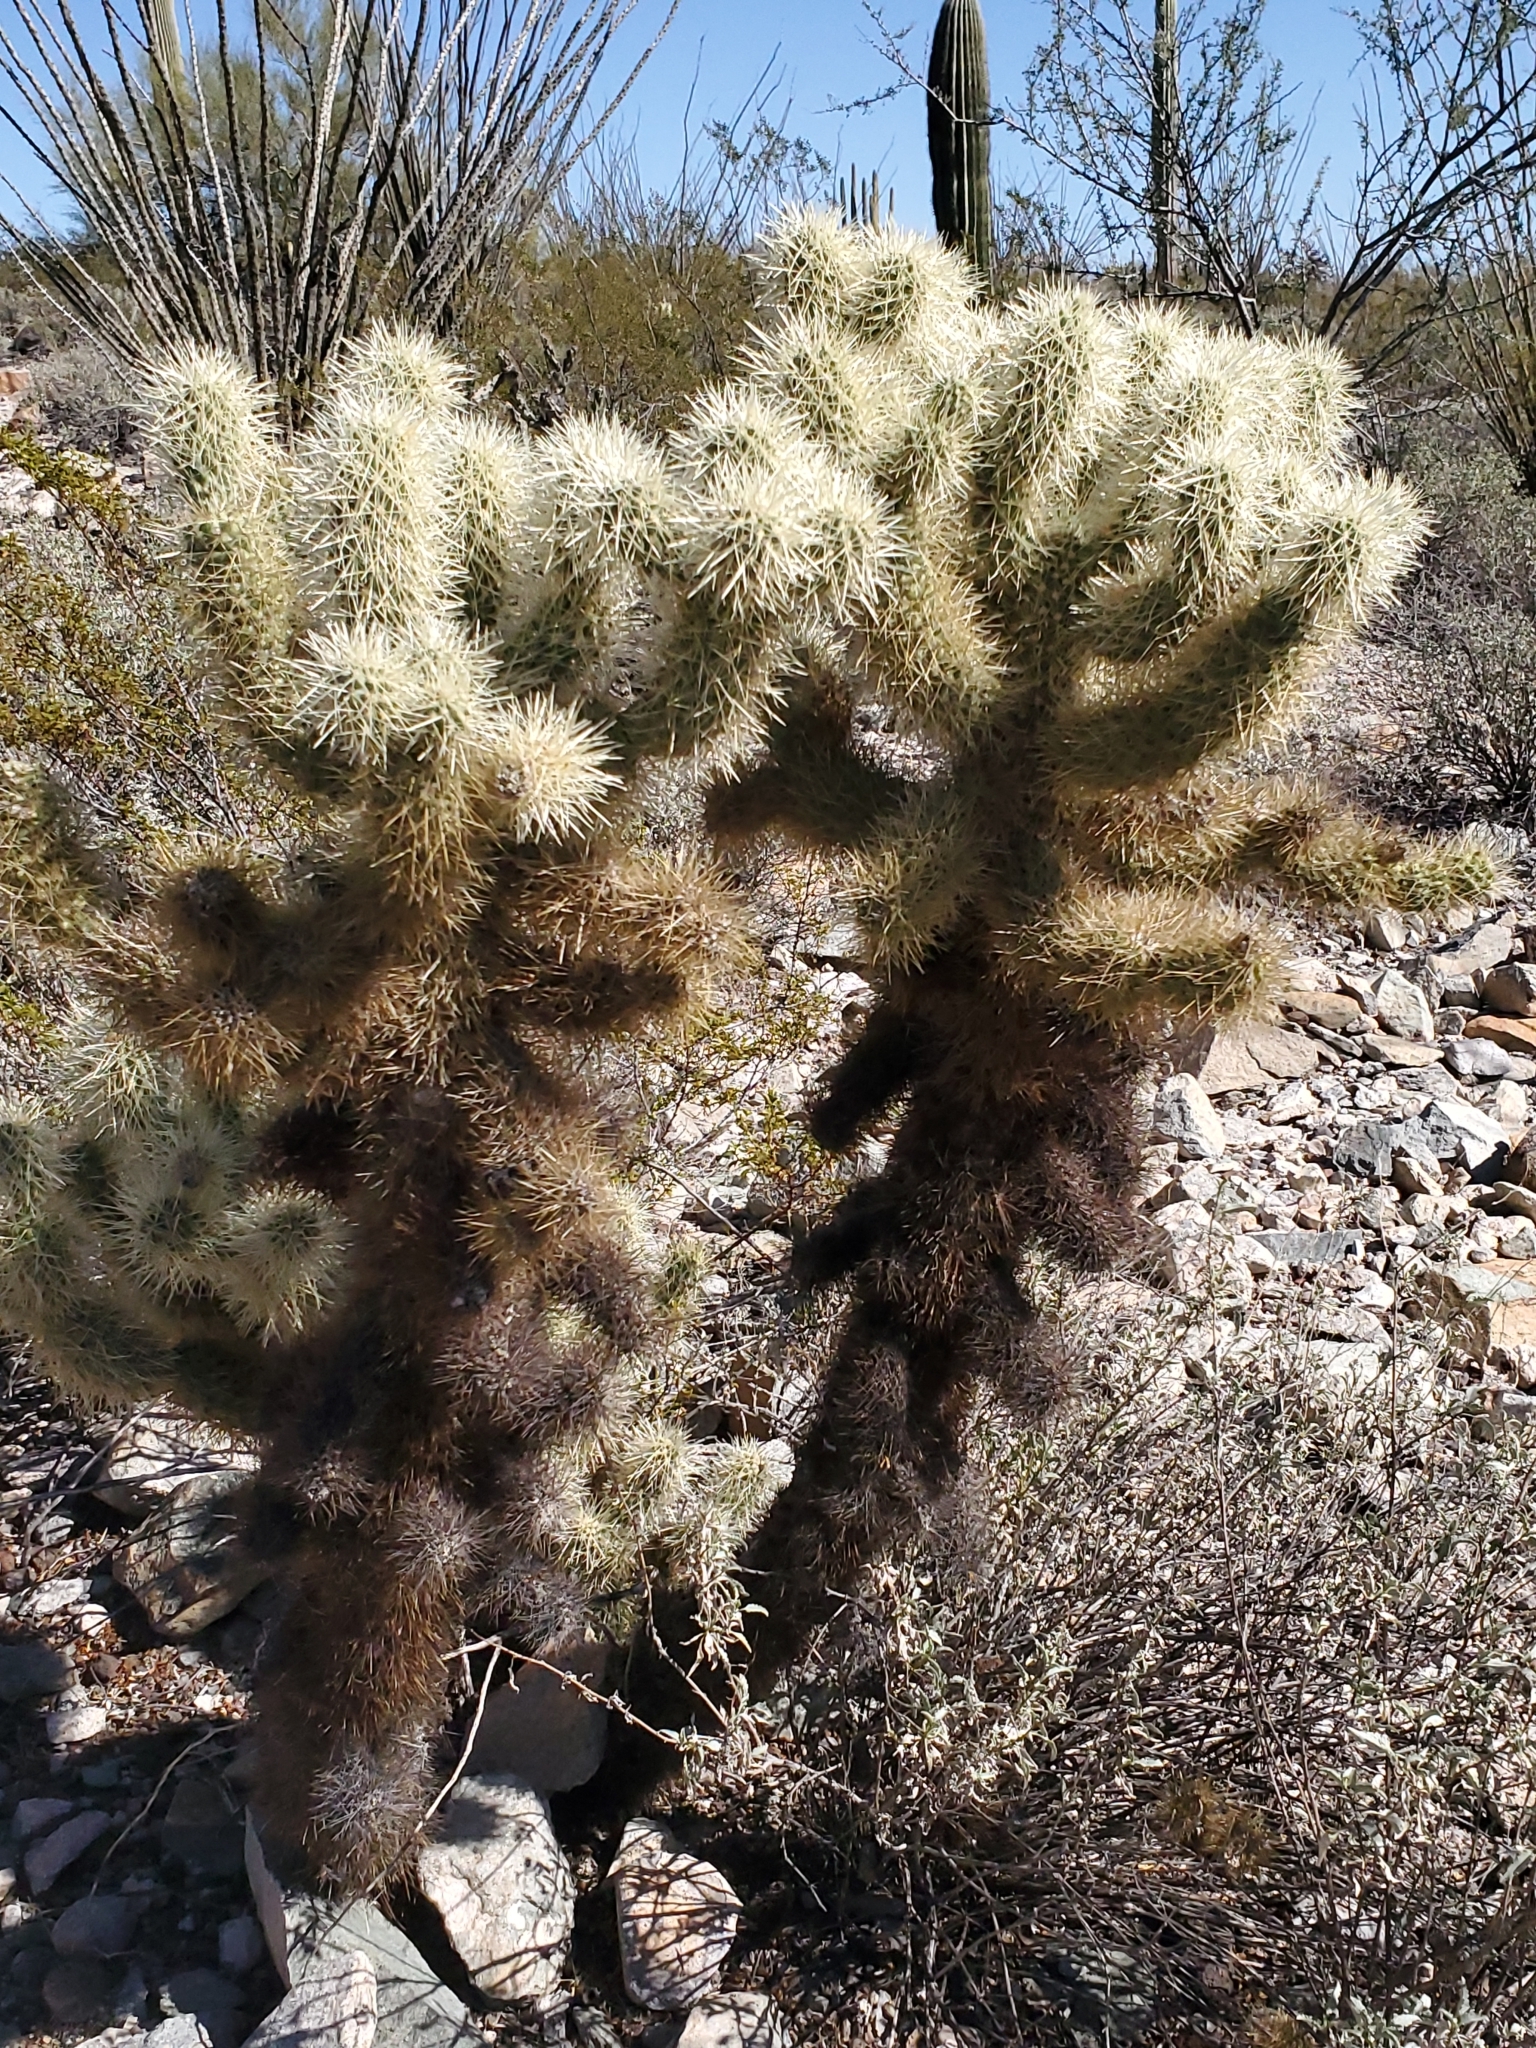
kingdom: Plantae
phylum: Tracheophyta
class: Magnoliopsida
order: Caryophyllales
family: Cactaceae
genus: Cylindropuntia
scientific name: Cylindropuntia fosbergii
